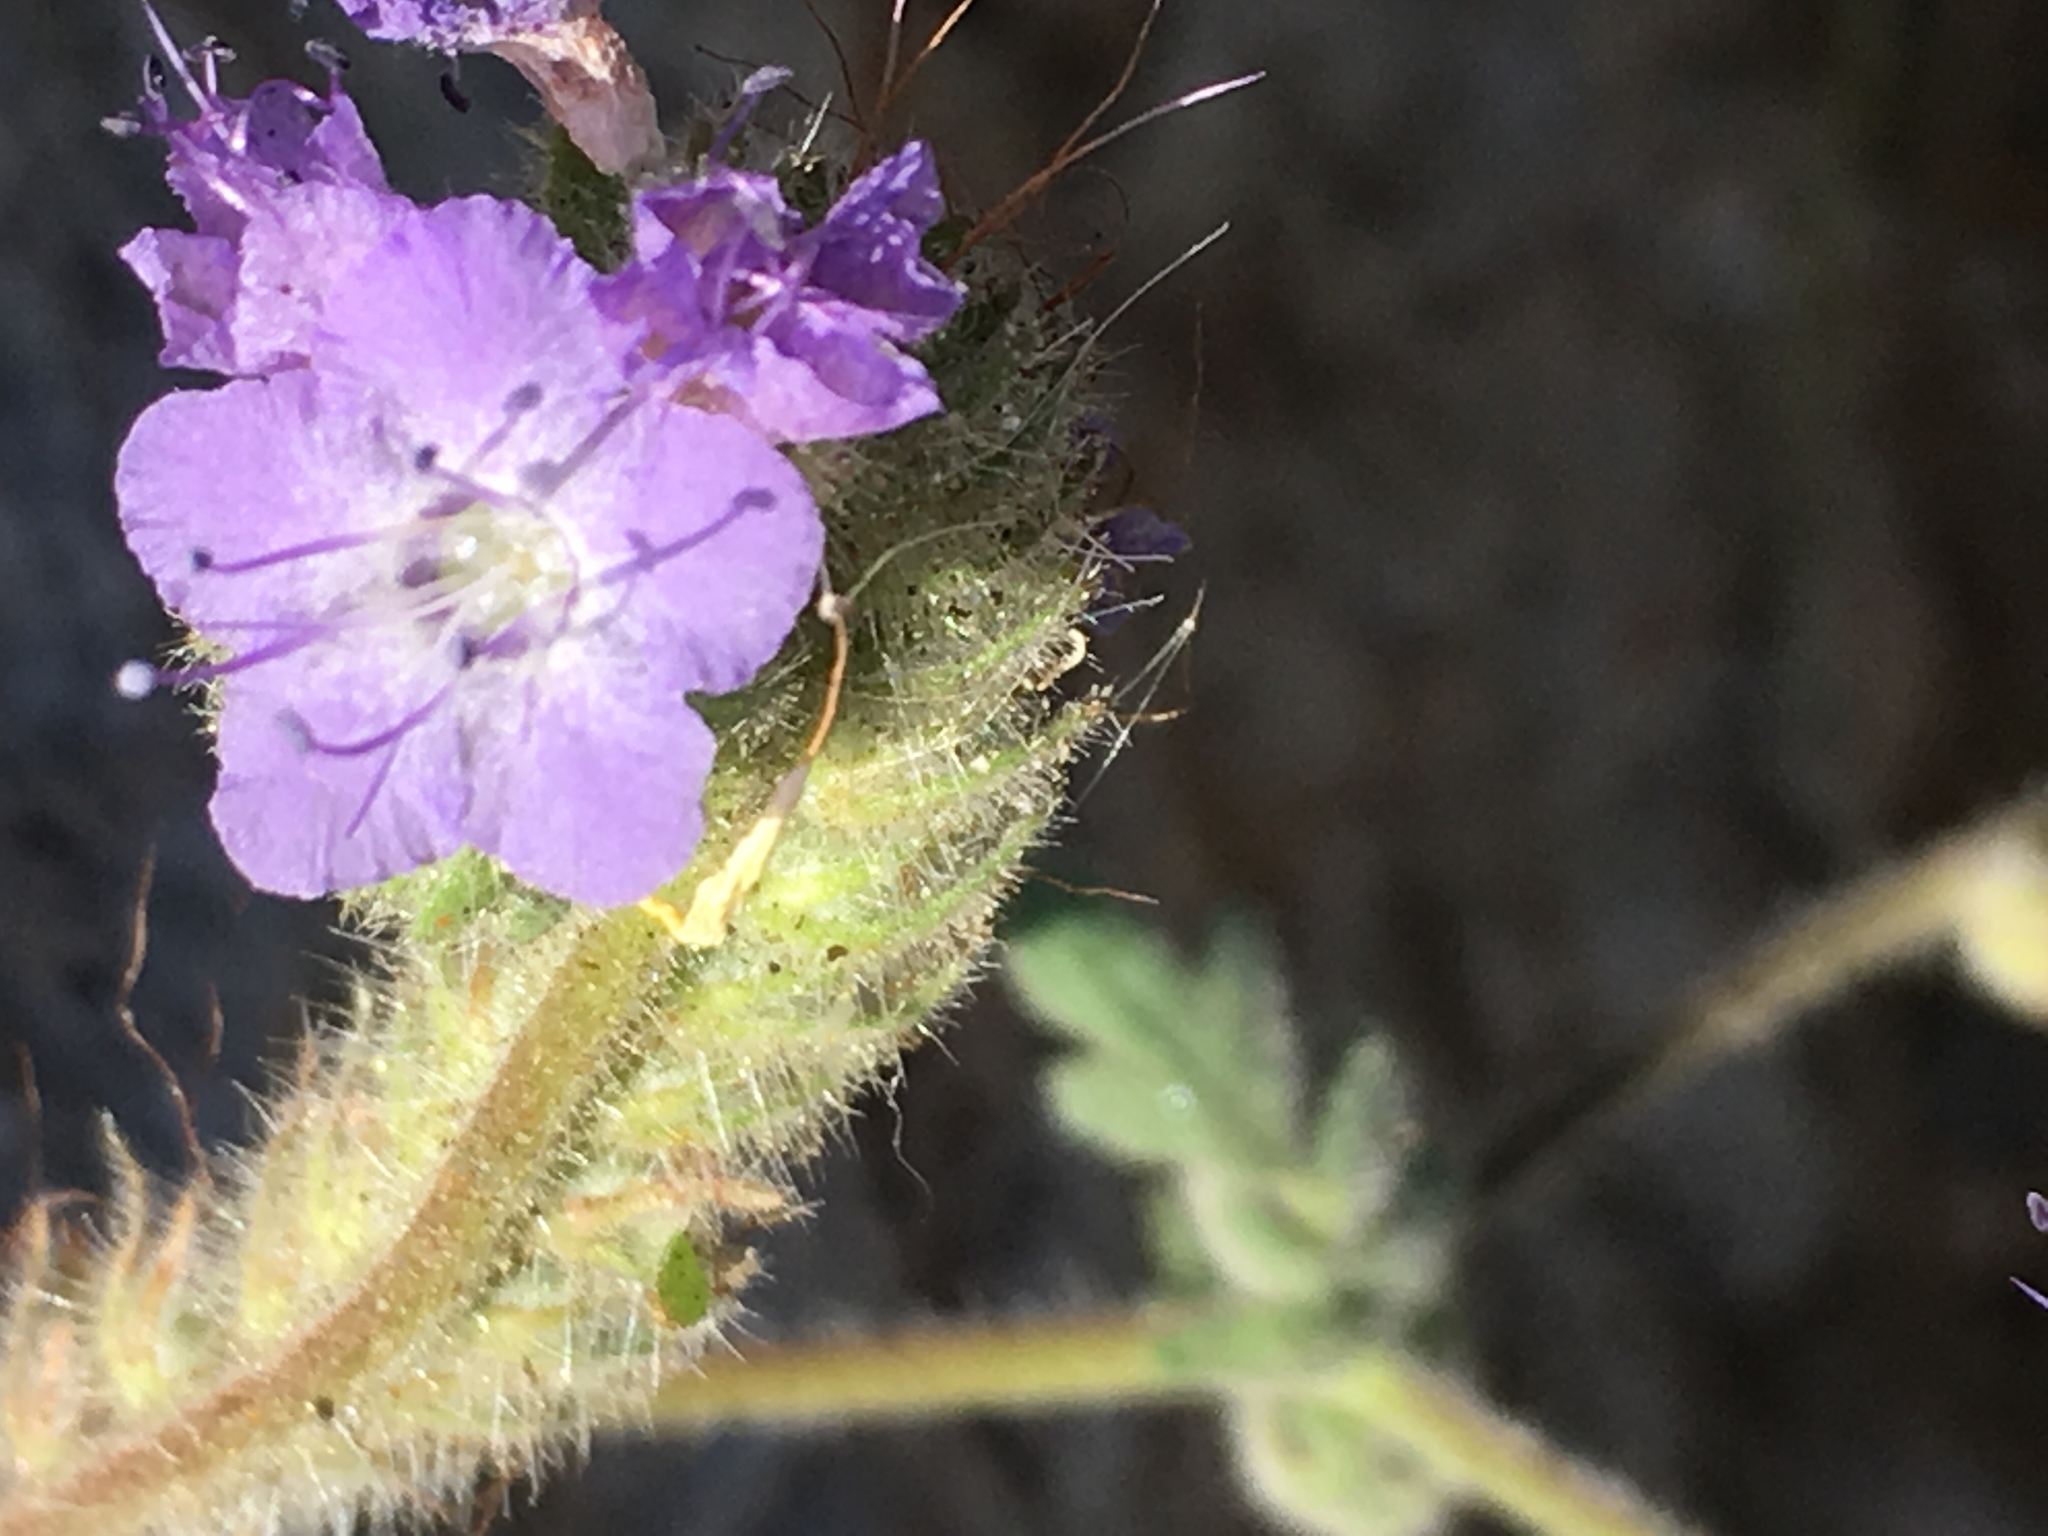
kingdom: Plantae
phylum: Tracheophyta
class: Magnoliopsida
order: Boraginales
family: Hydrophyllaceae
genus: Phacelia
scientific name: Phacelia distans
